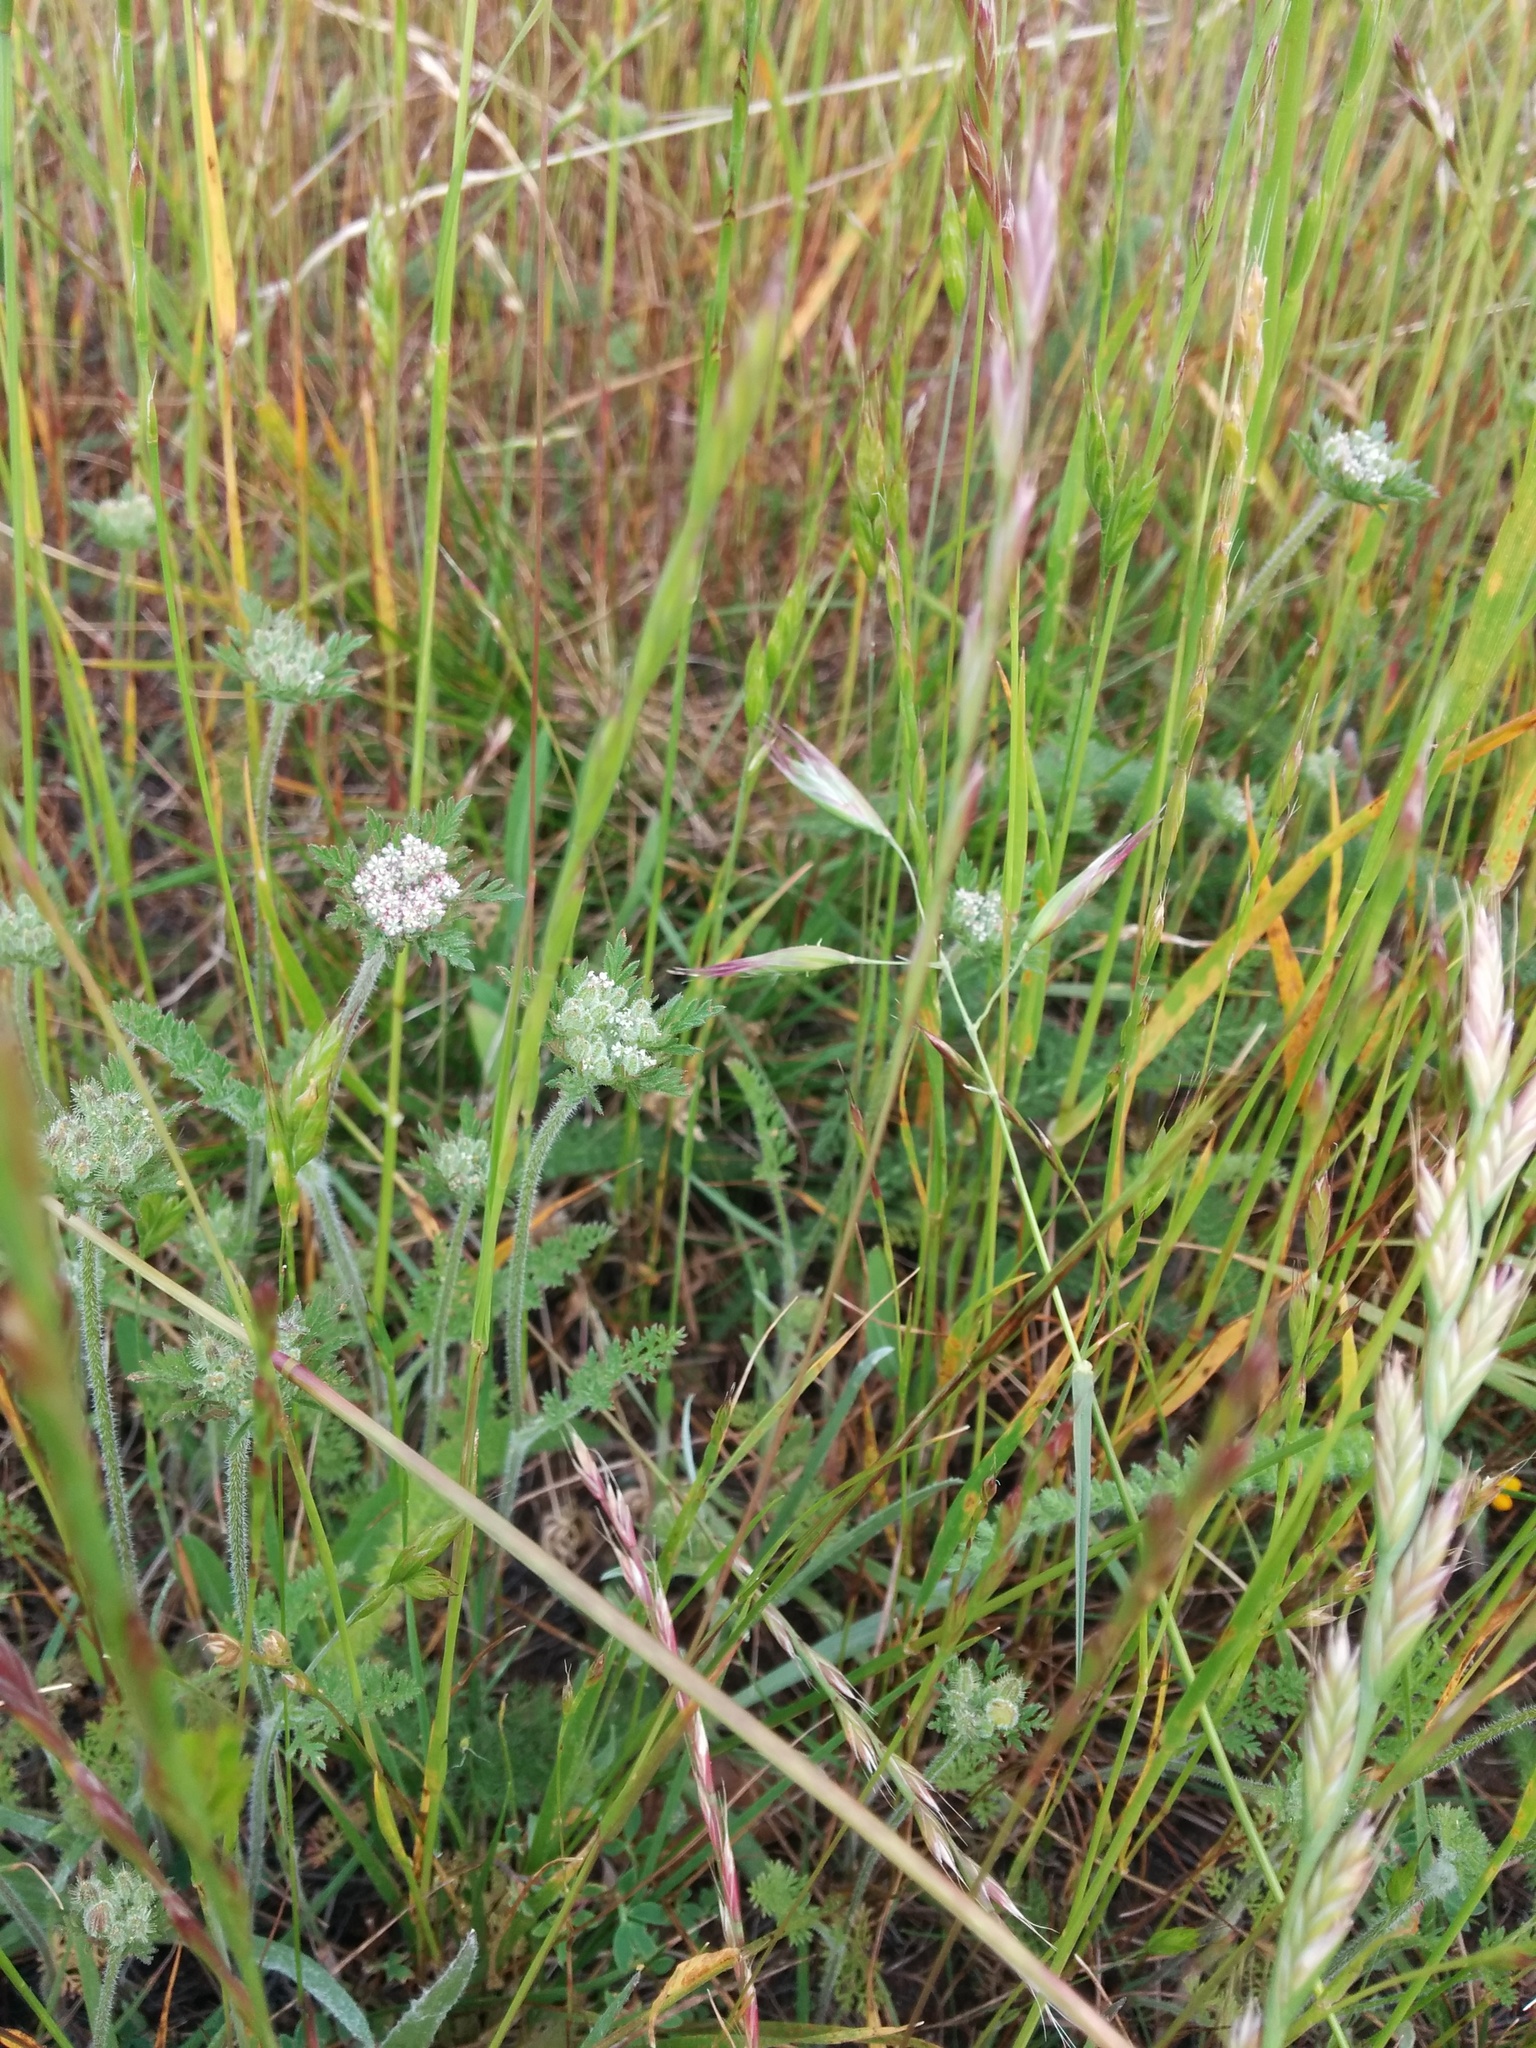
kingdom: Plantae
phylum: Tracheophyta
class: Magnoliopsida
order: Apiales
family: Apiaceae
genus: Daucus
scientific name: Daucus pusillus
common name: Southwest wild carrot
